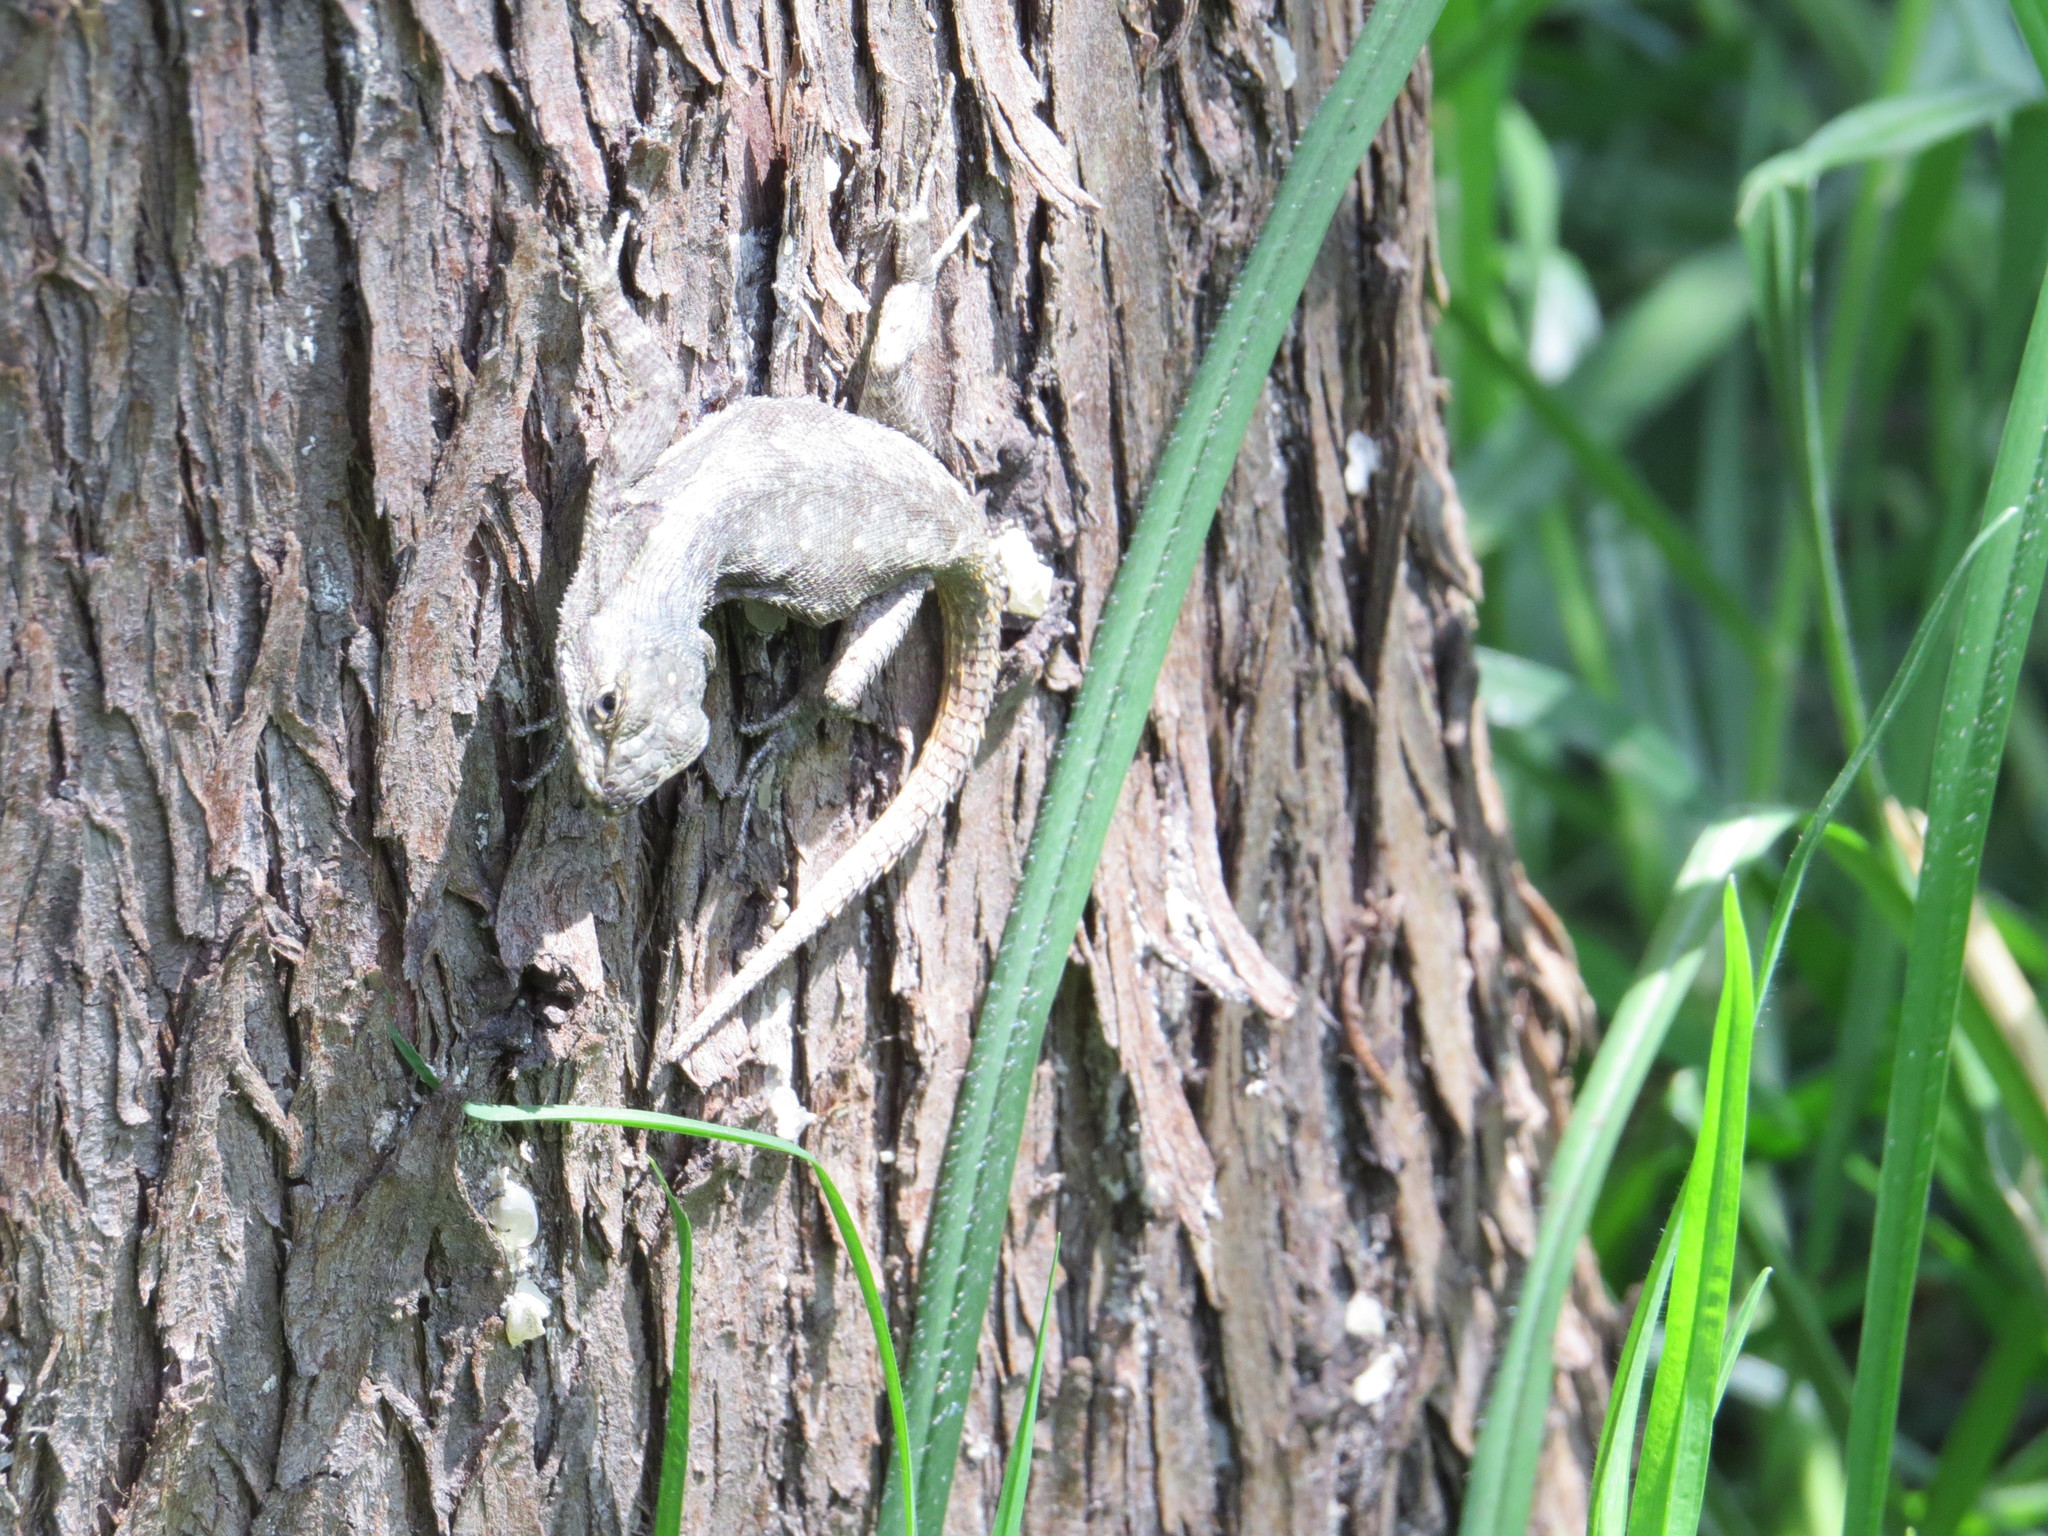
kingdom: Animalia
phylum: Chordata
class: Squamata
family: Phrynosomatidae
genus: Sceloporus
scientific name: Sceloporus grammicus
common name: Mesquite lizard
